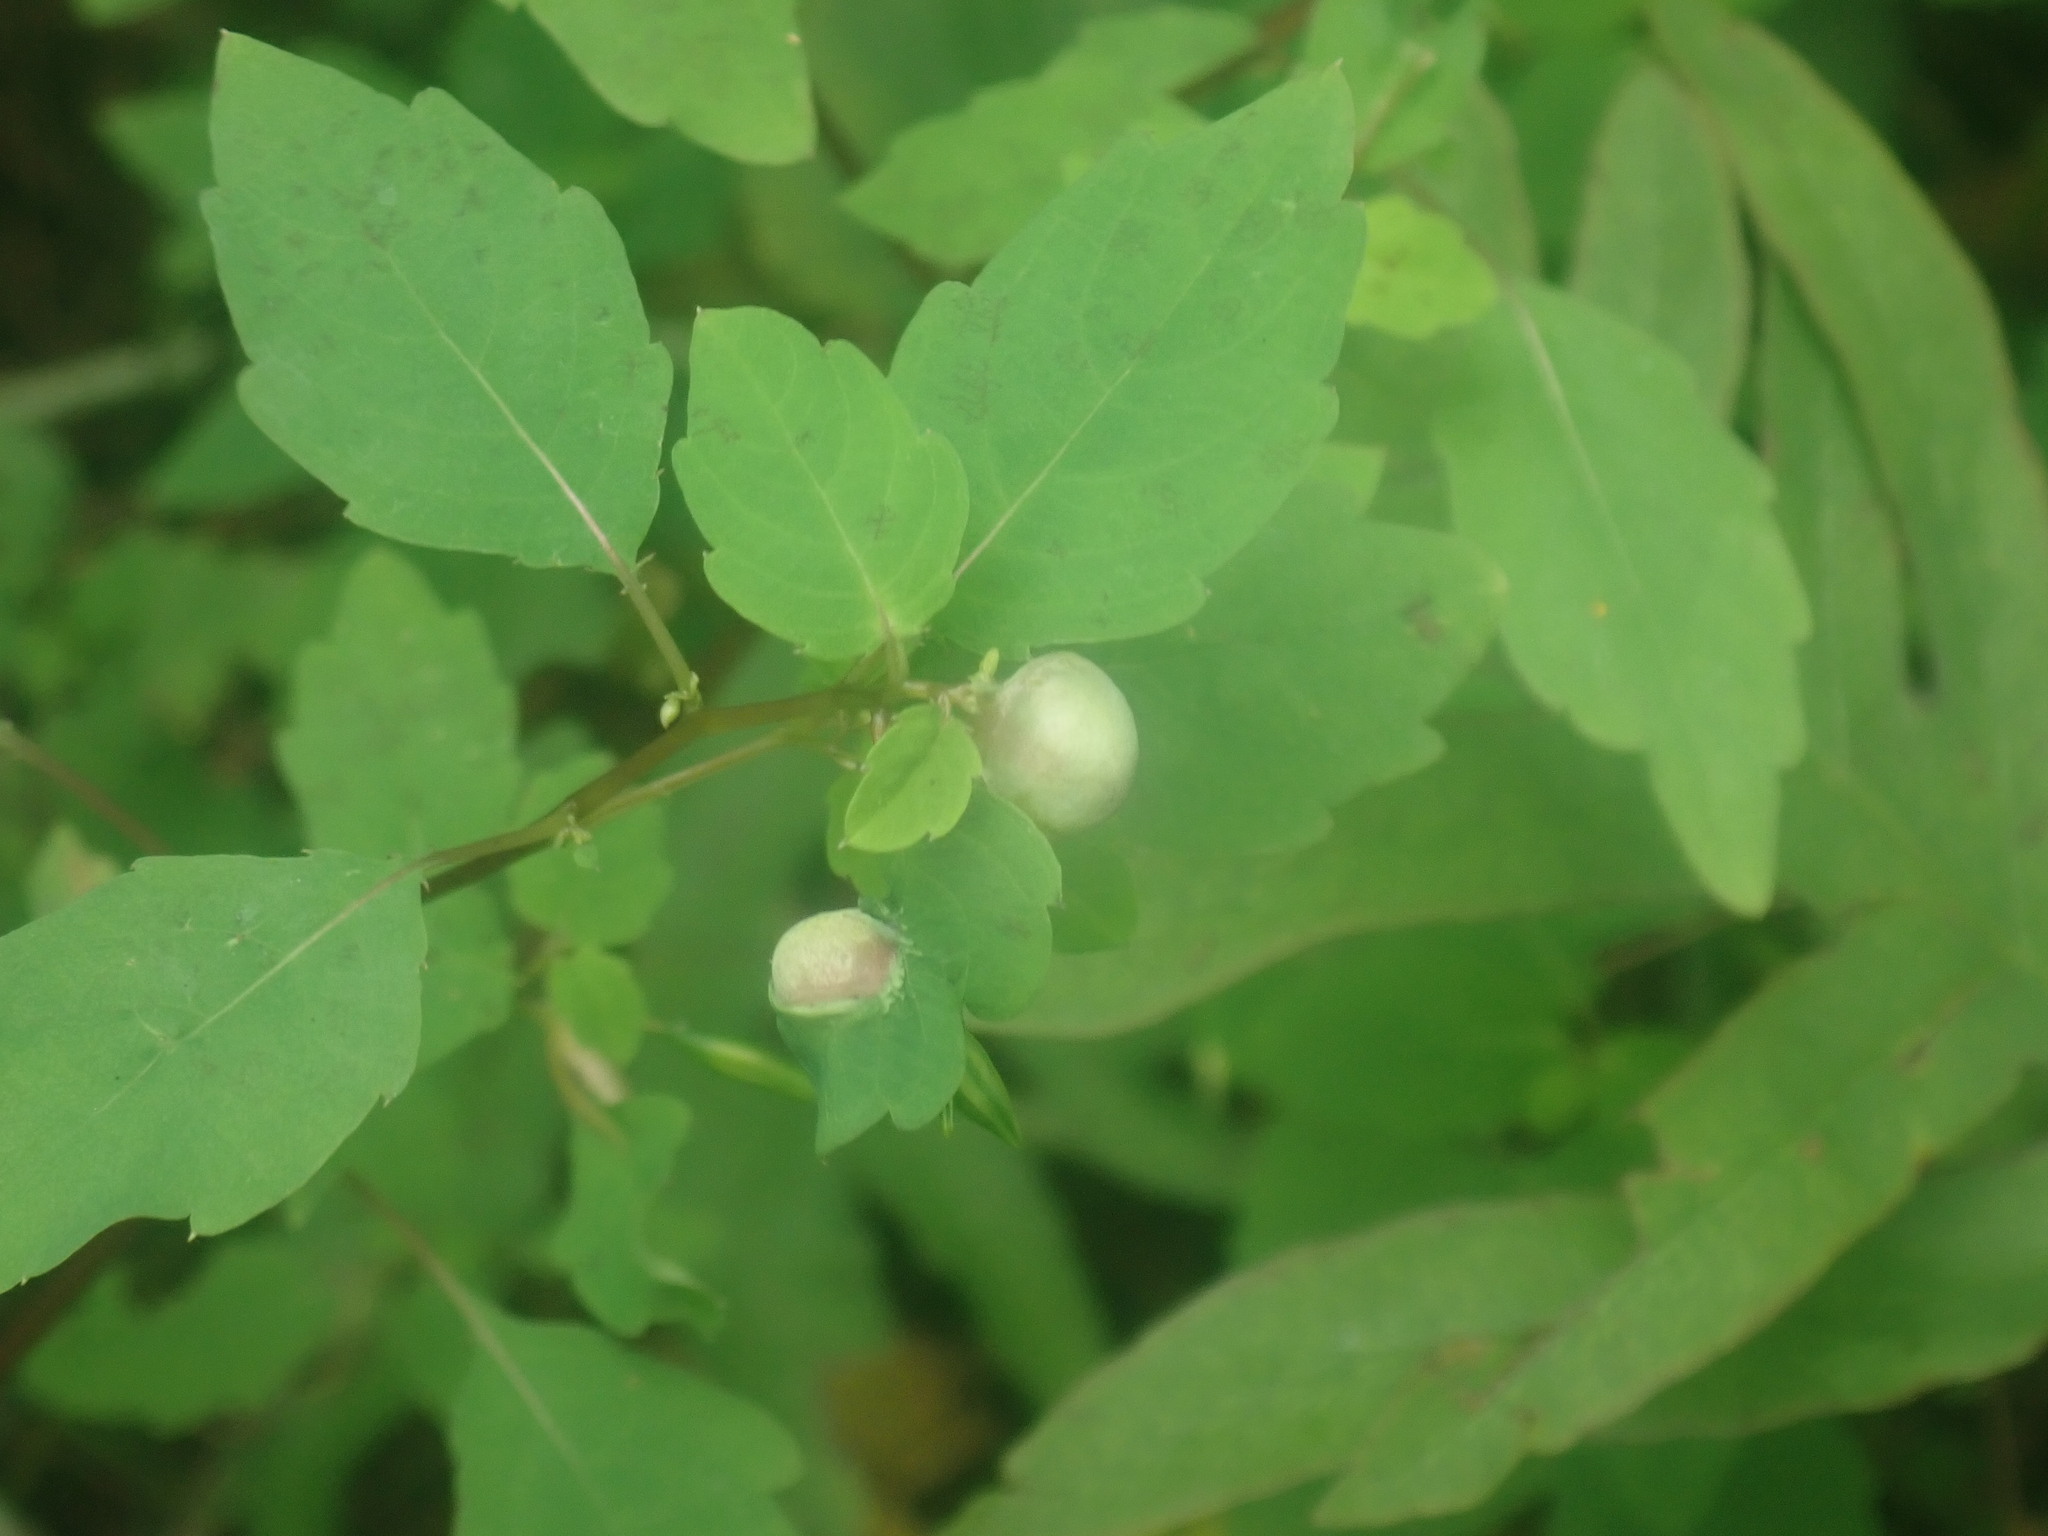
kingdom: Animalia
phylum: Arthropoda
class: Insecta
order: Diptera
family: Cecidomyiidae
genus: Schizomyia
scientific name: Schizomyia impatientis
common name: Jewelweed gall midge
